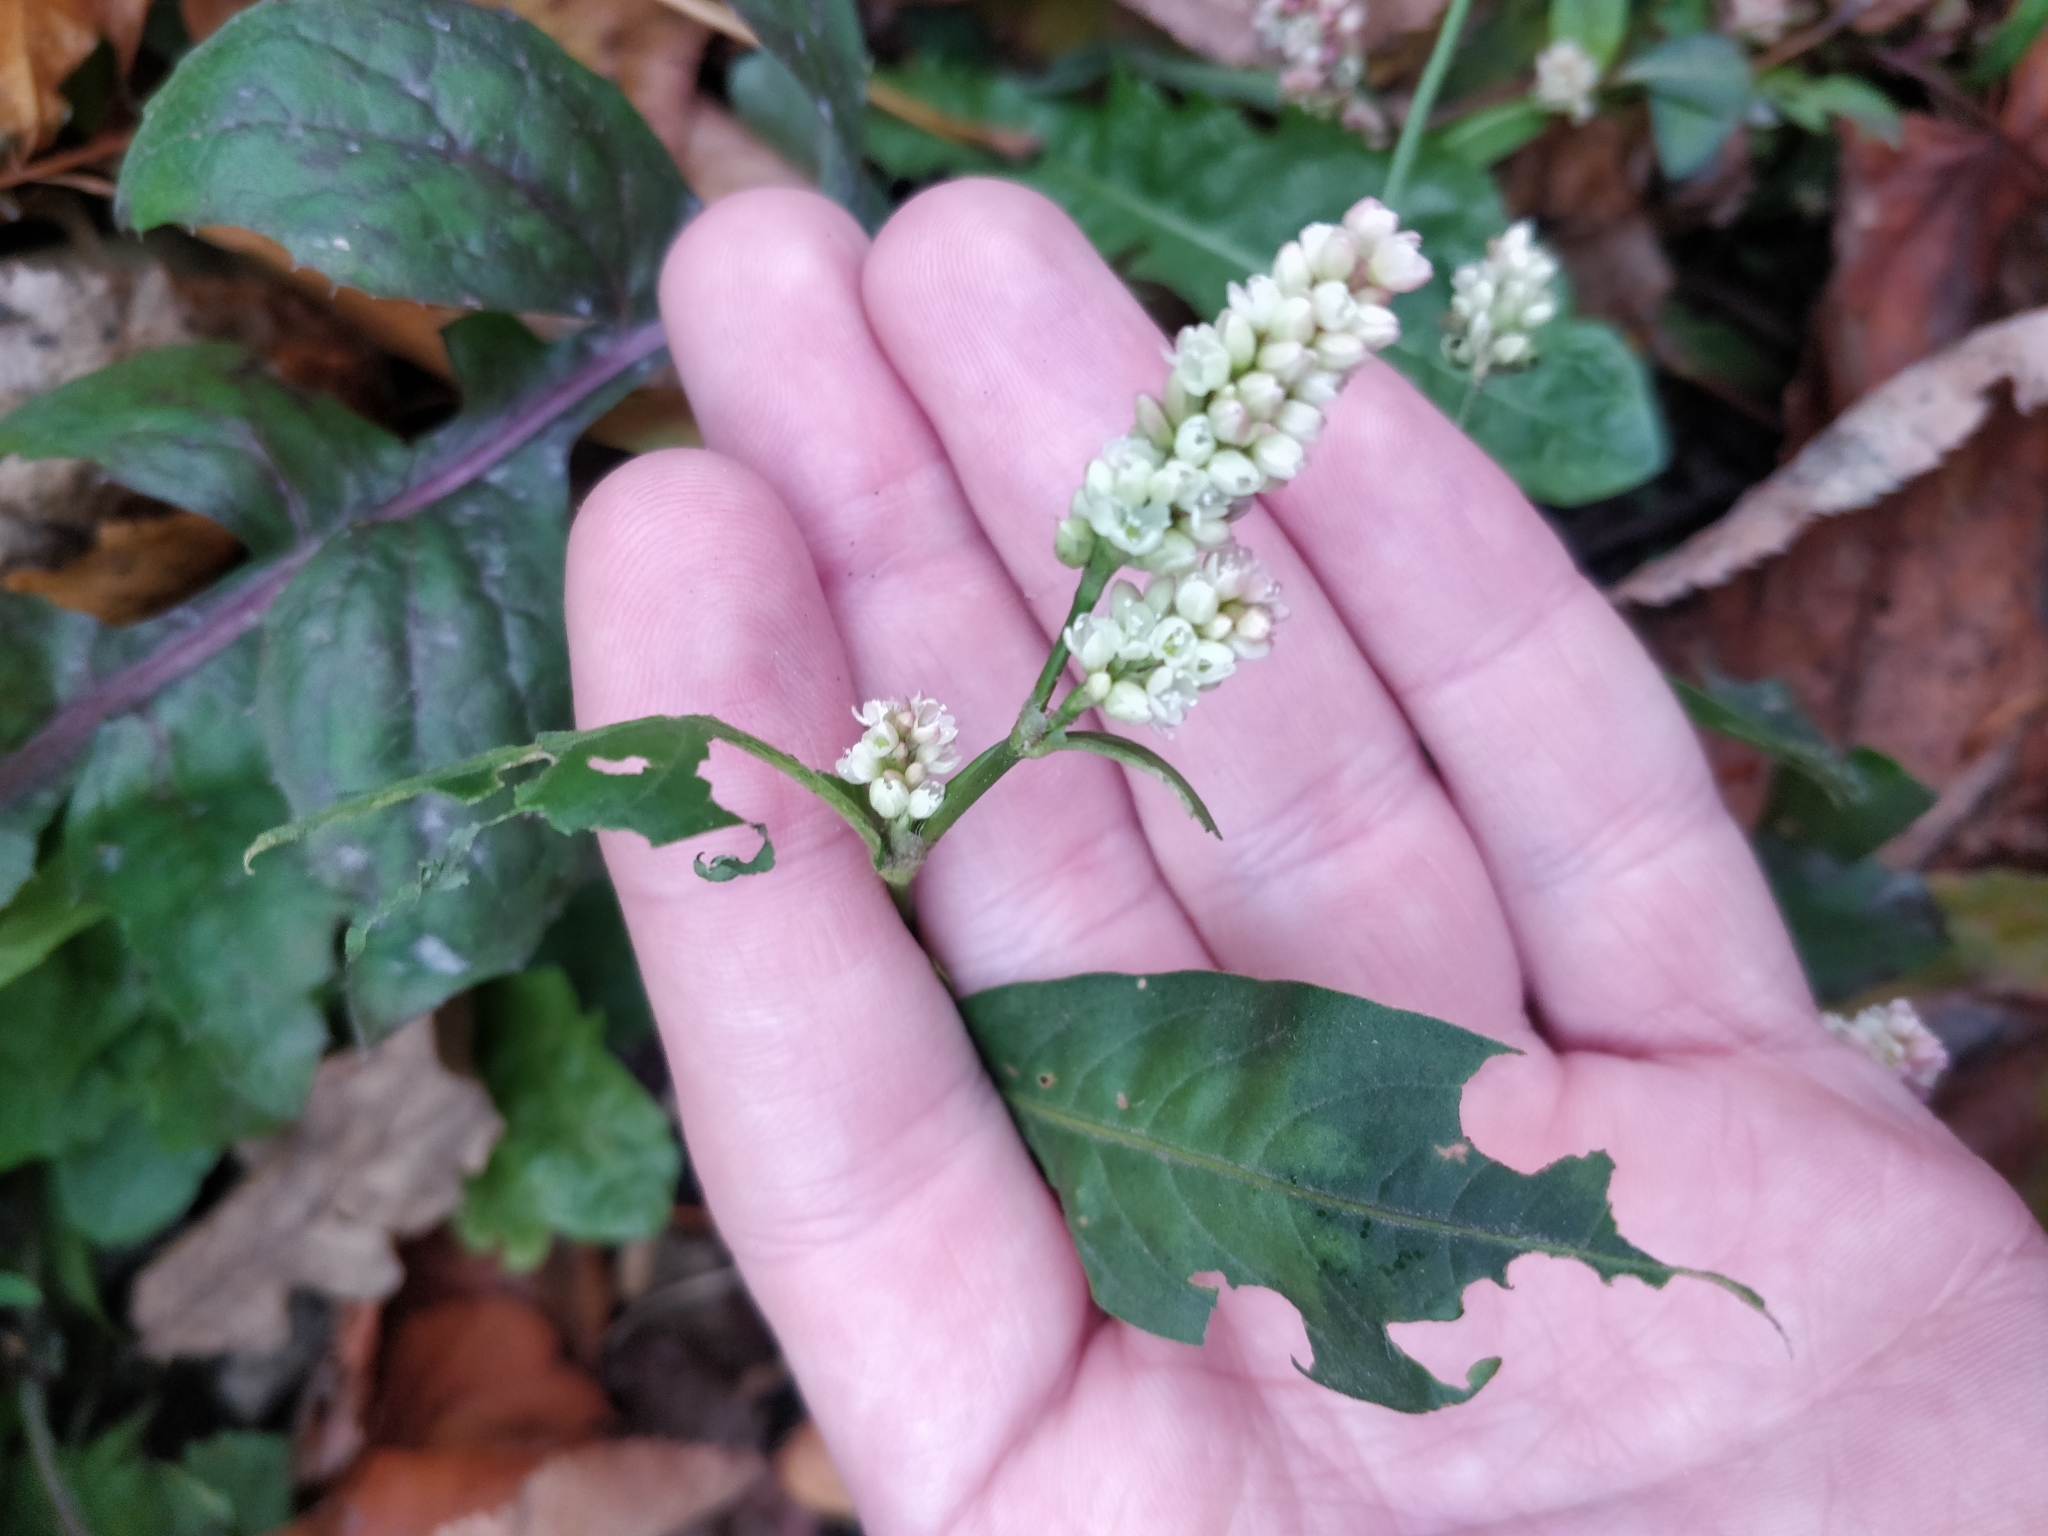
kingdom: Plantae
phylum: Tracheophyta
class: Magnoliopsida
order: Caryophyllales
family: Polygonaceae
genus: Persicaria
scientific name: Persicaria maculosa
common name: Redshank
